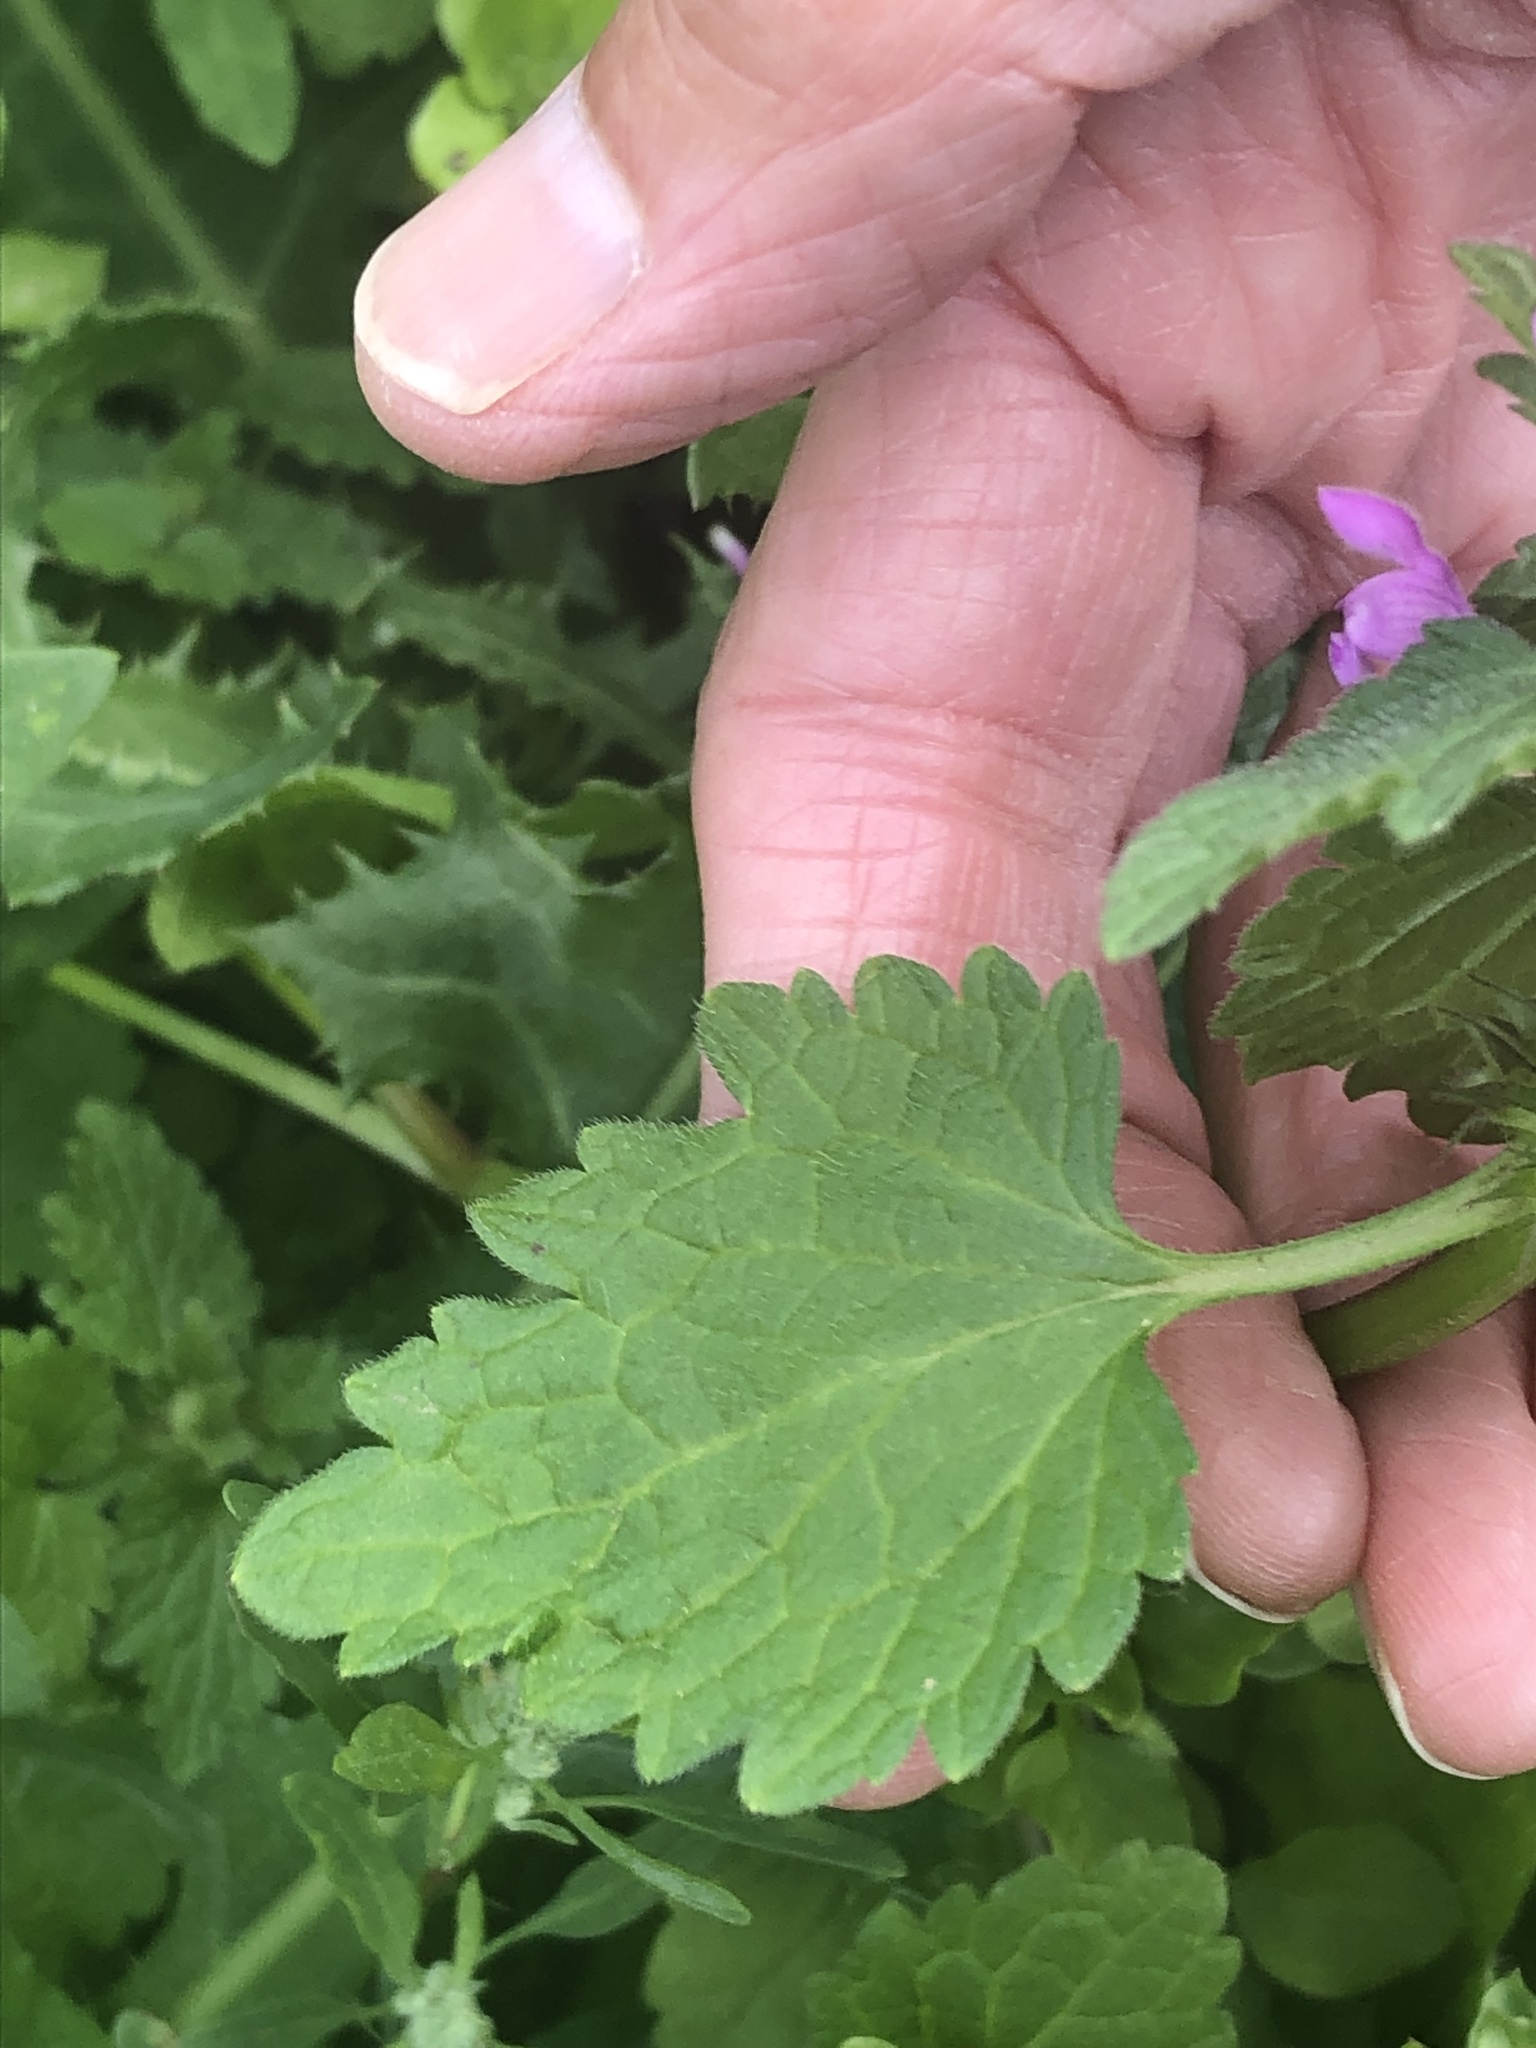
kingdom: Plantae
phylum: Tracheophyta
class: Magnoliopsida
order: Lamiales
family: Lamiaceae
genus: Lamium
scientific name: Lamium hybridum
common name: Cut-leaved dead-nettle
